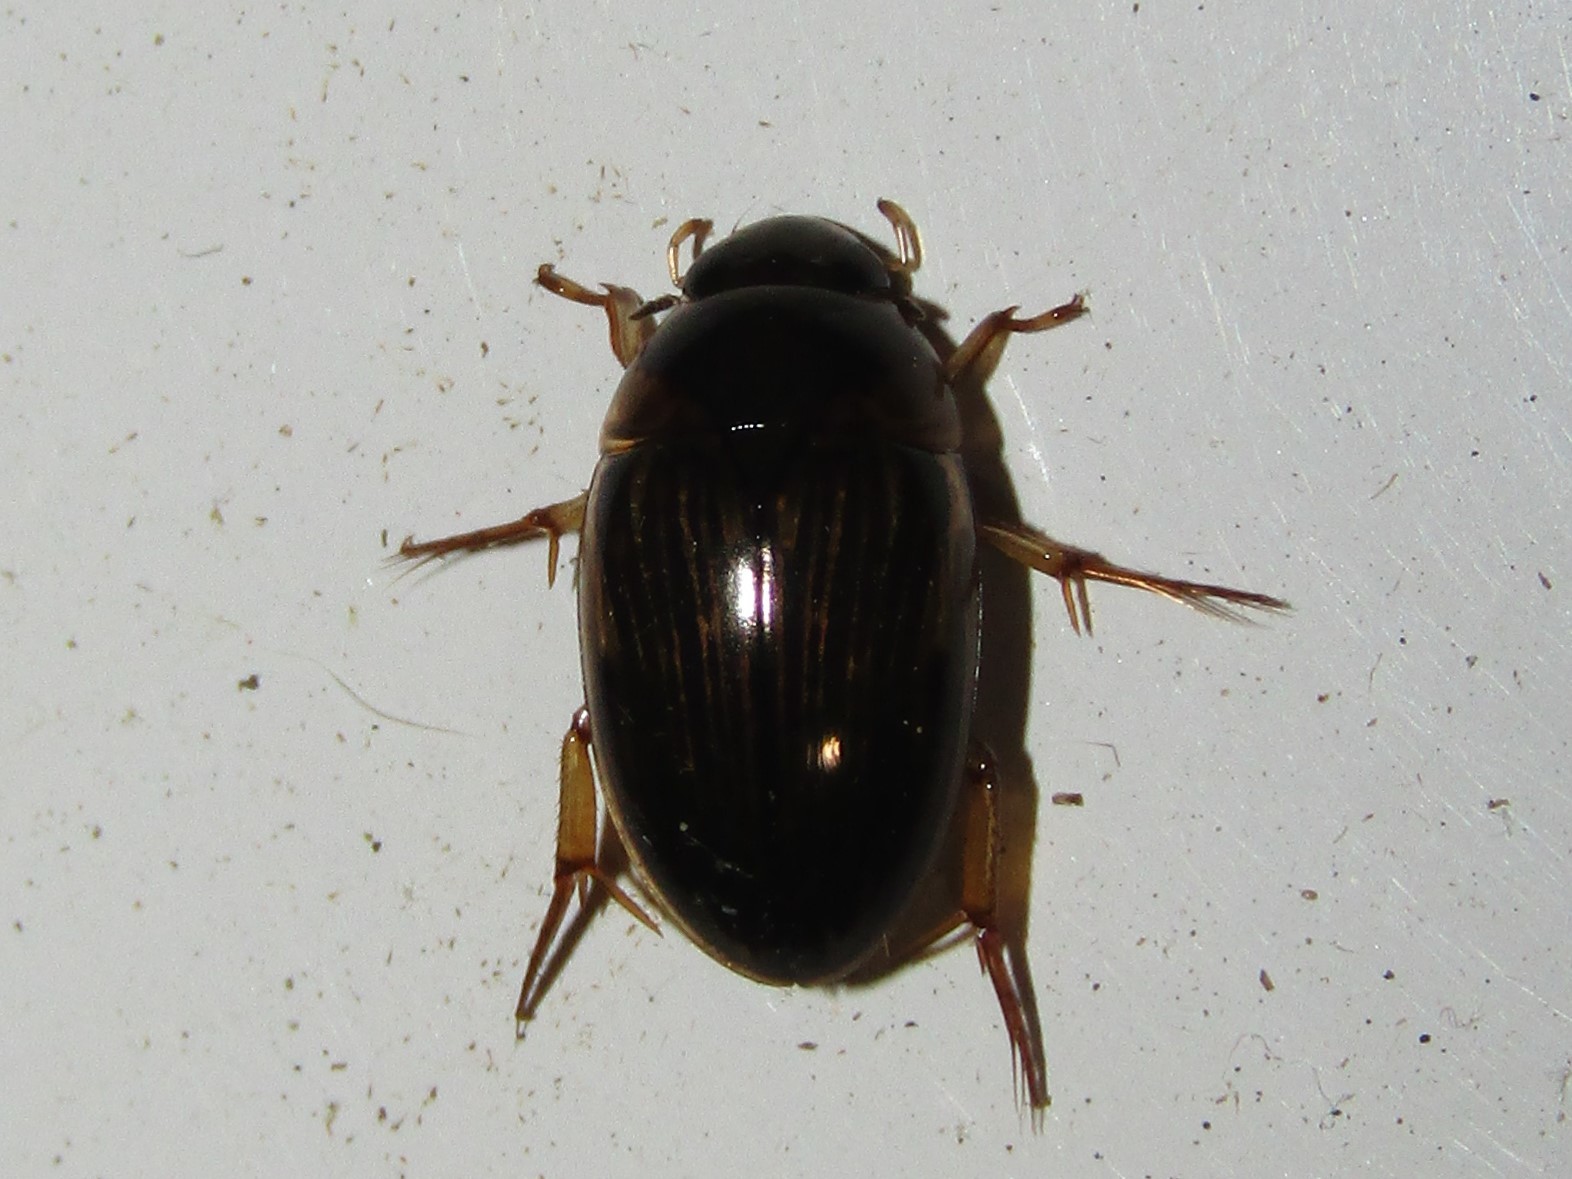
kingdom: Animalia
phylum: Arthropoda
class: Insecta
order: Coleoptera
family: Hydrophilidae
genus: Tropisternus
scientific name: Tropisternus collaris
